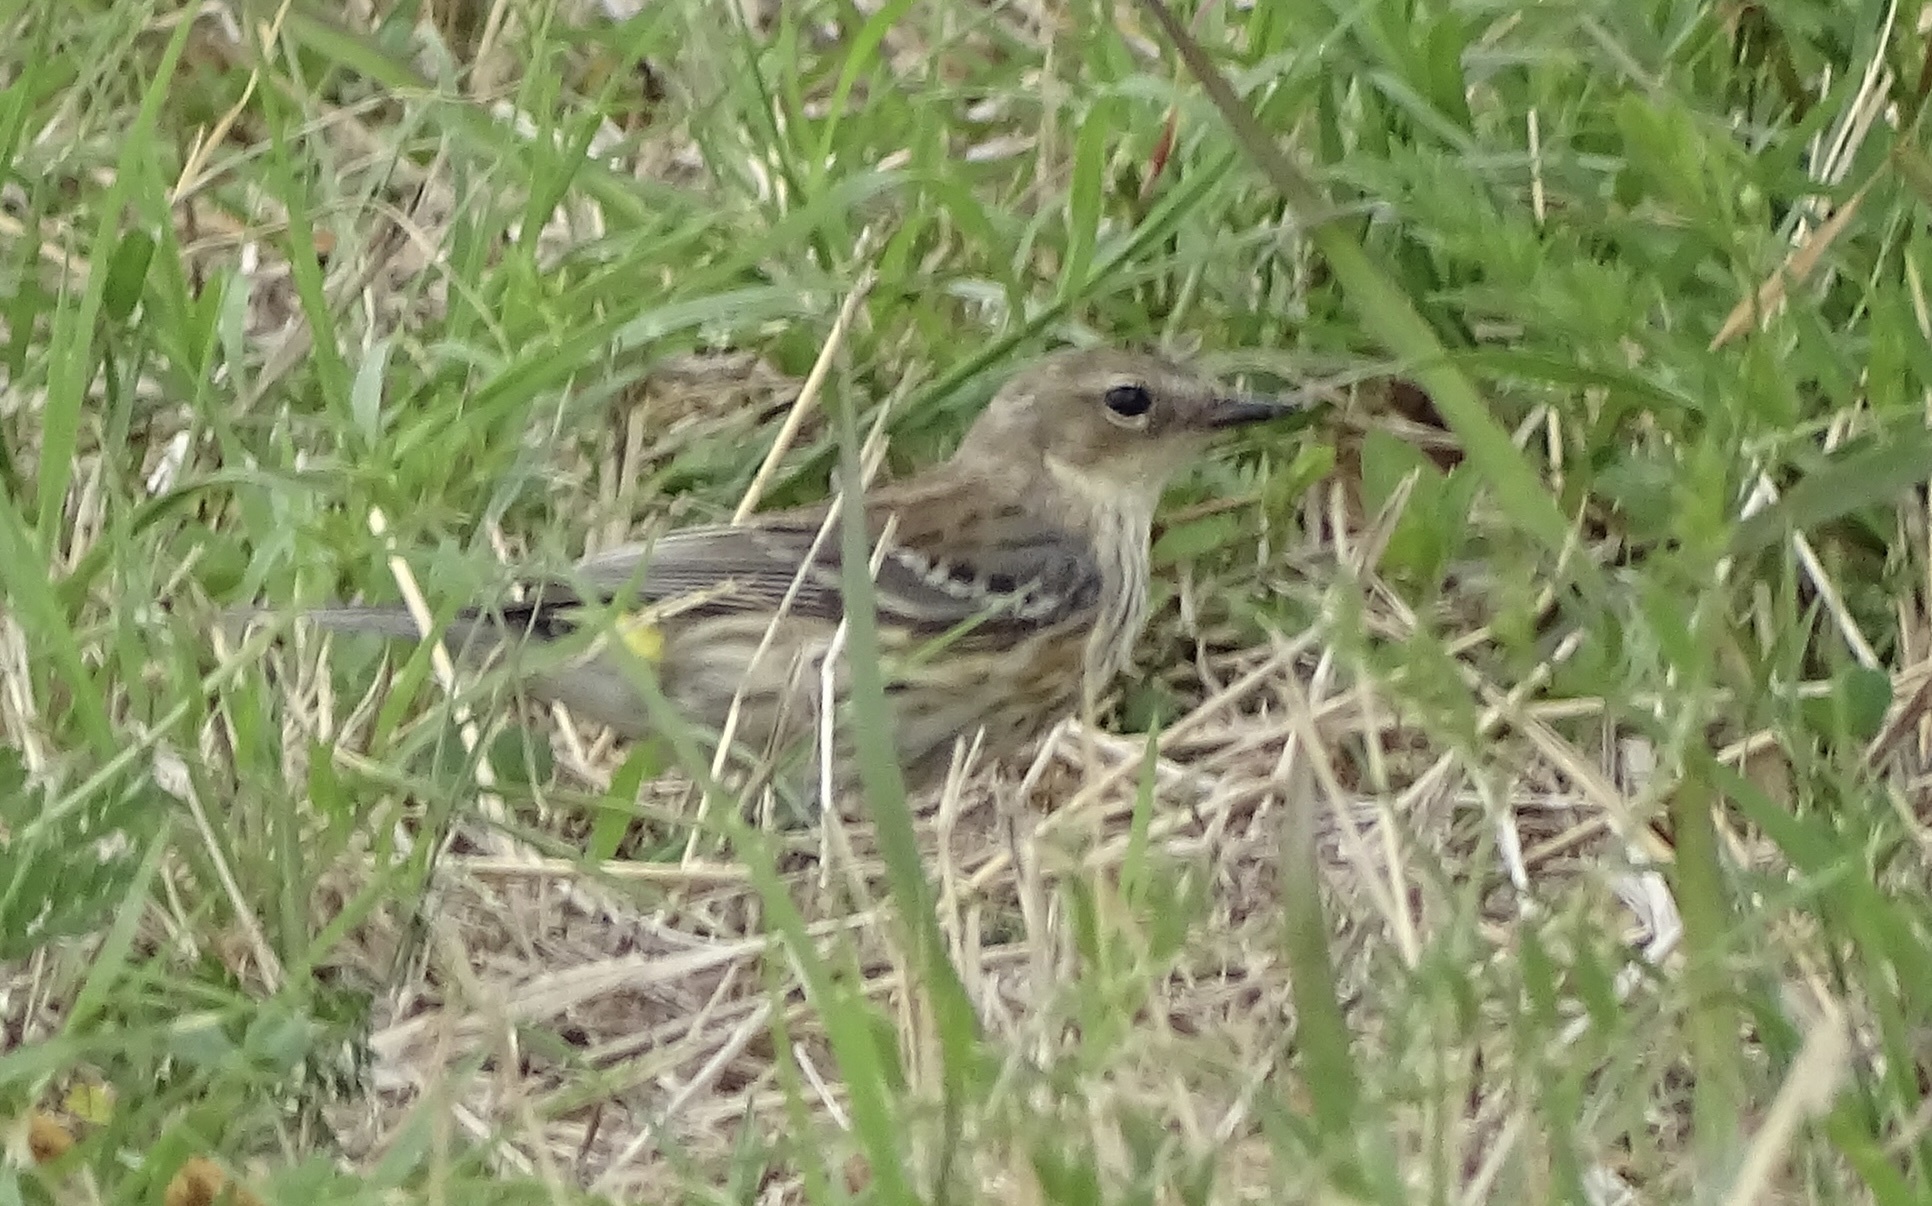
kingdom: Animalia
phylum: Chordata
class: Aves
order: Passeriformes
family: Parulidae
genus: Setophaga
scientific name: Setophaga coronata
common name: Myrtle warbler
